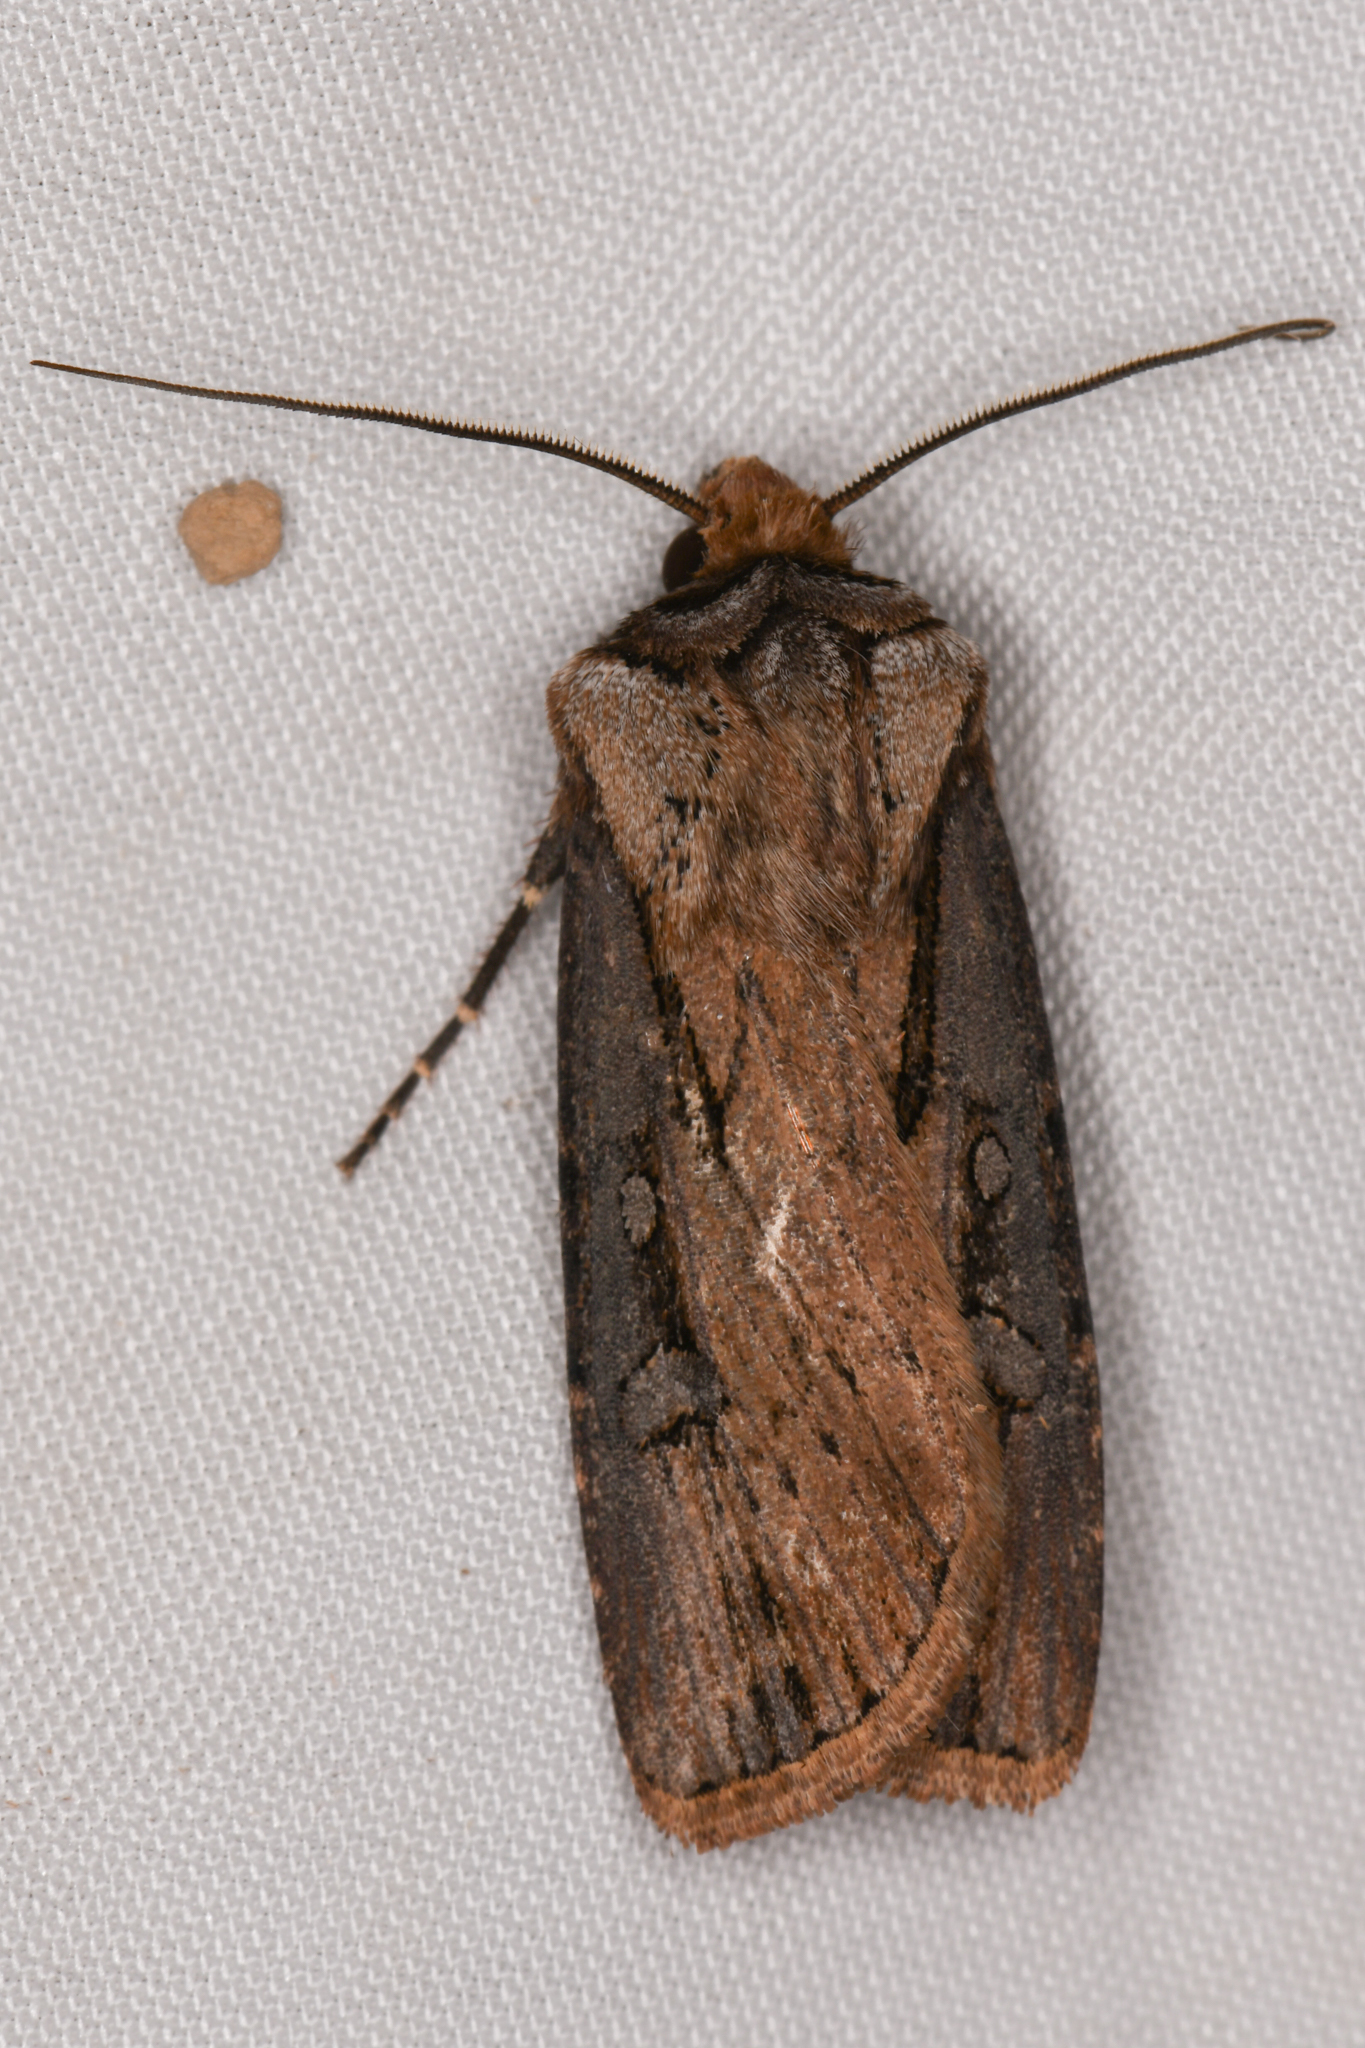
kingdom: Animalia
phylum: Arthropoda
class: Insecta
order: Lepidoptera
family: Noctuidae
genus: Agrotis
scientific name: Agrotis antica
